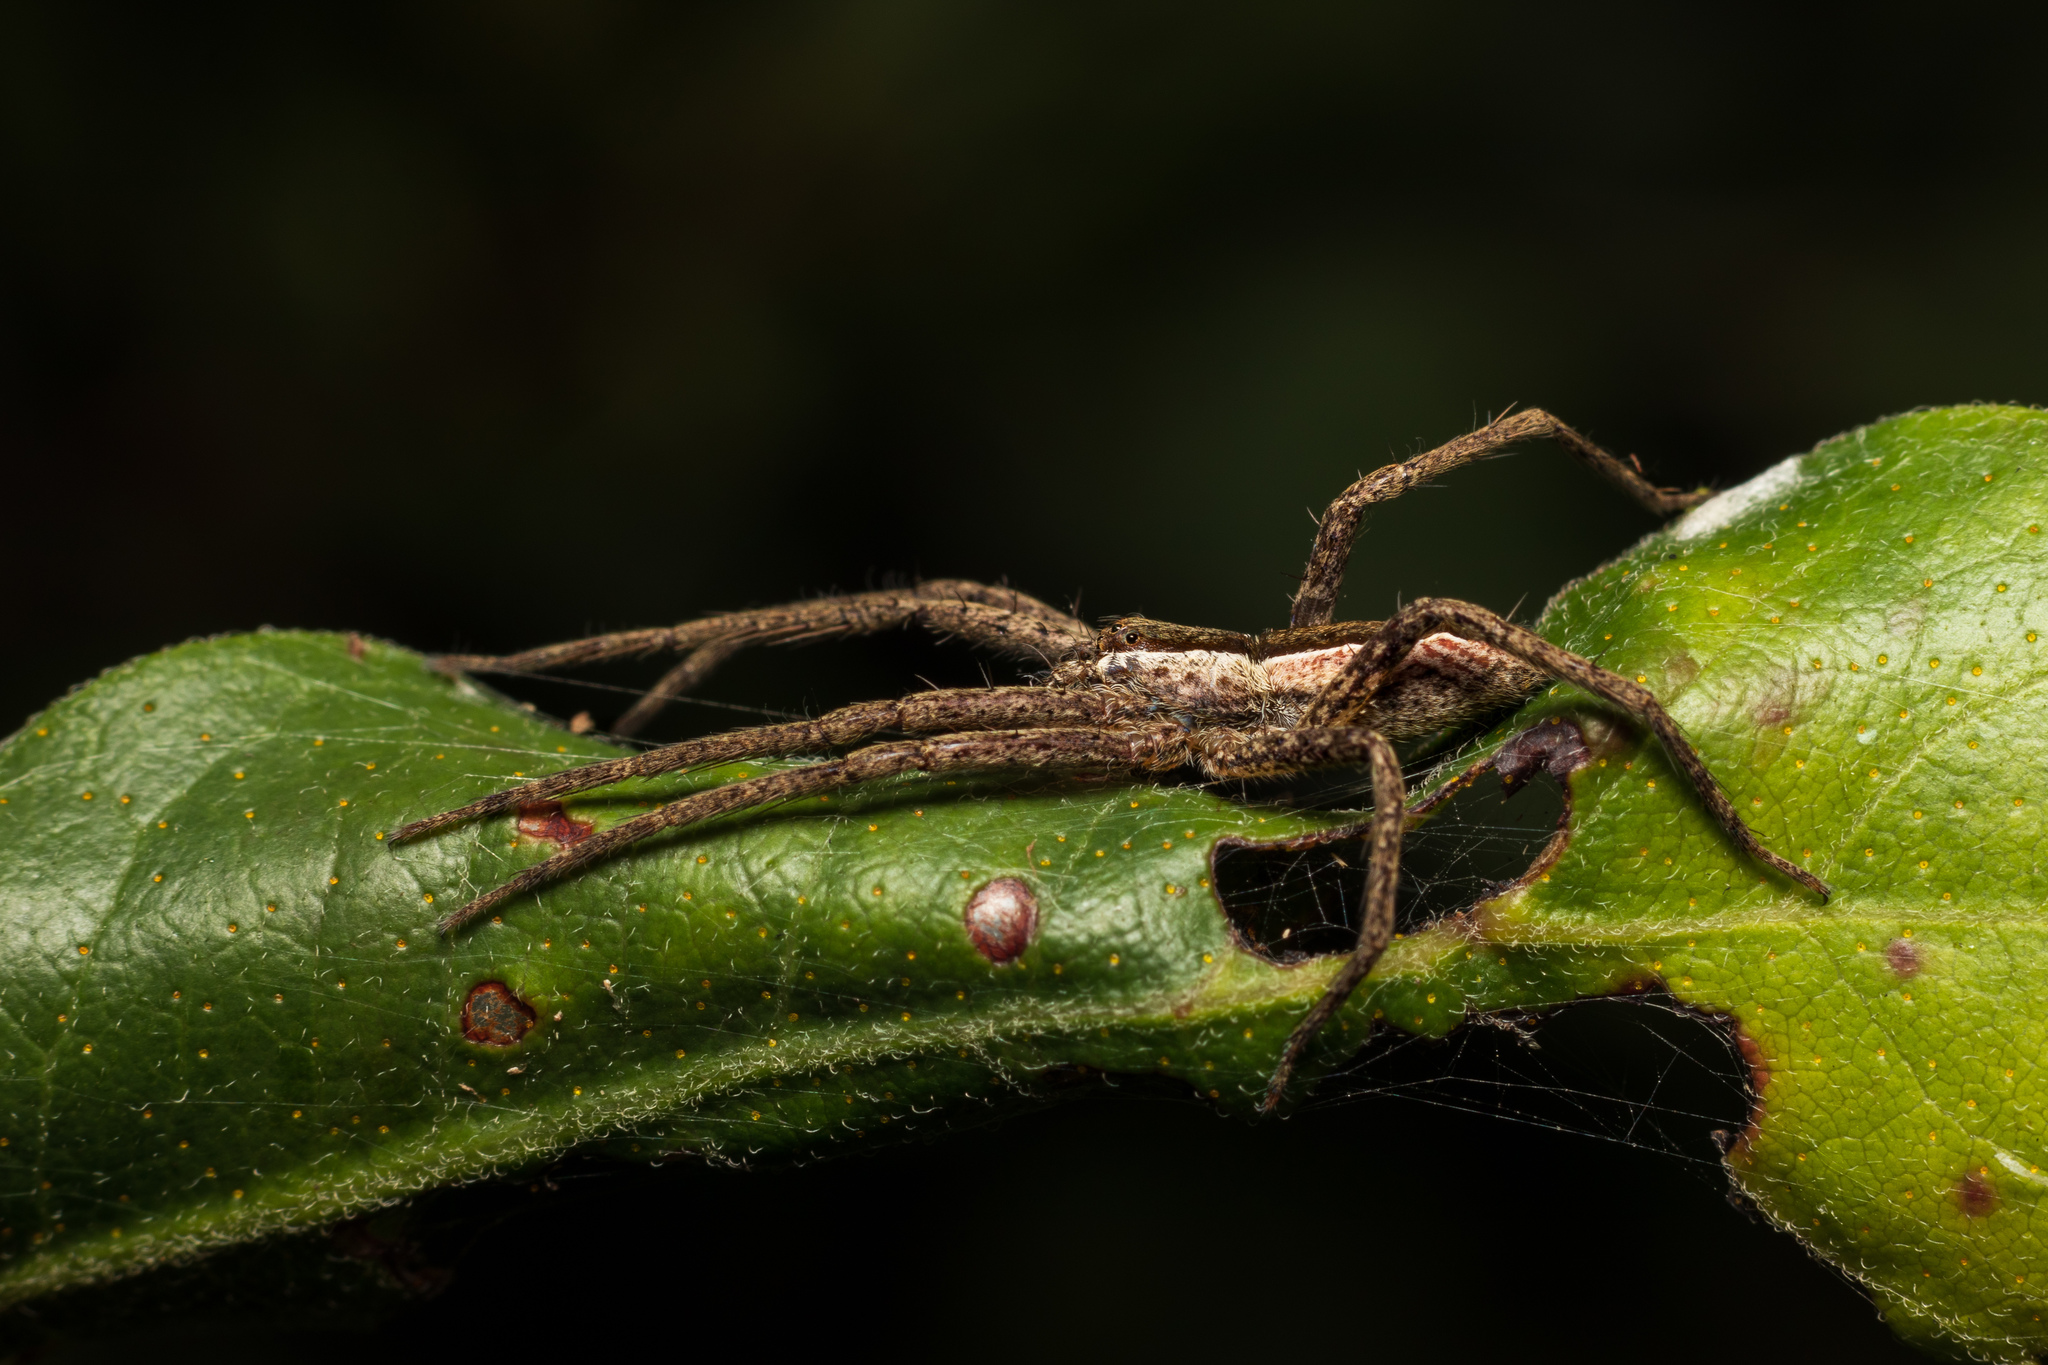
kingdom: Animalia
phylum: Arthropoda
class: Arachnida
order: Araneae
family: Pisauridae
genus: Pisaurina
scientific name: Pisaurina mira
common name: American nursery web spider
